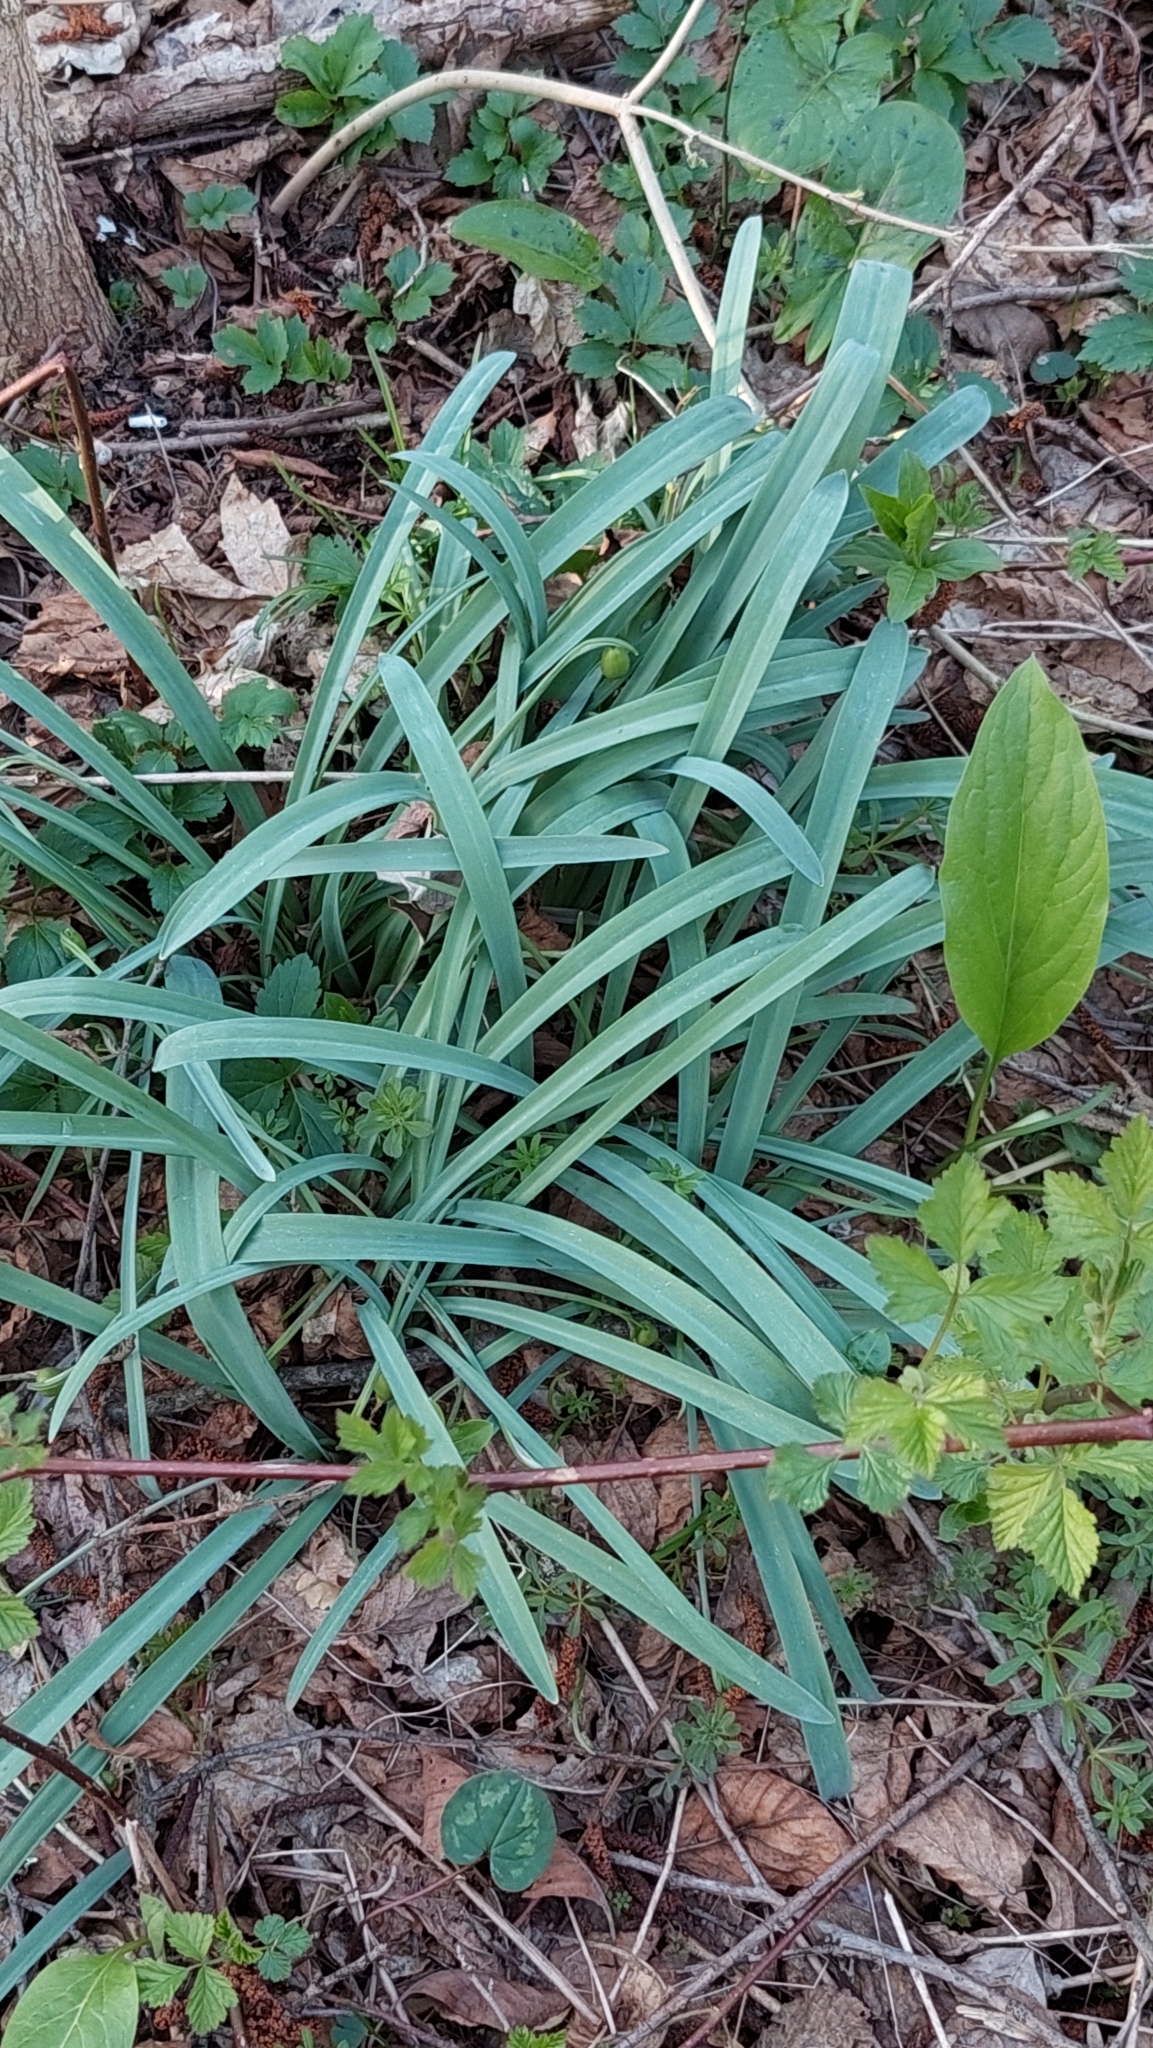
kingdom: Plantae
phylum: Tracheophyta
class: Liliopsida
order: Asparagales
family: Amaryllidaceae
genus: Galanthus
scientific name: Galanthus alpinus
